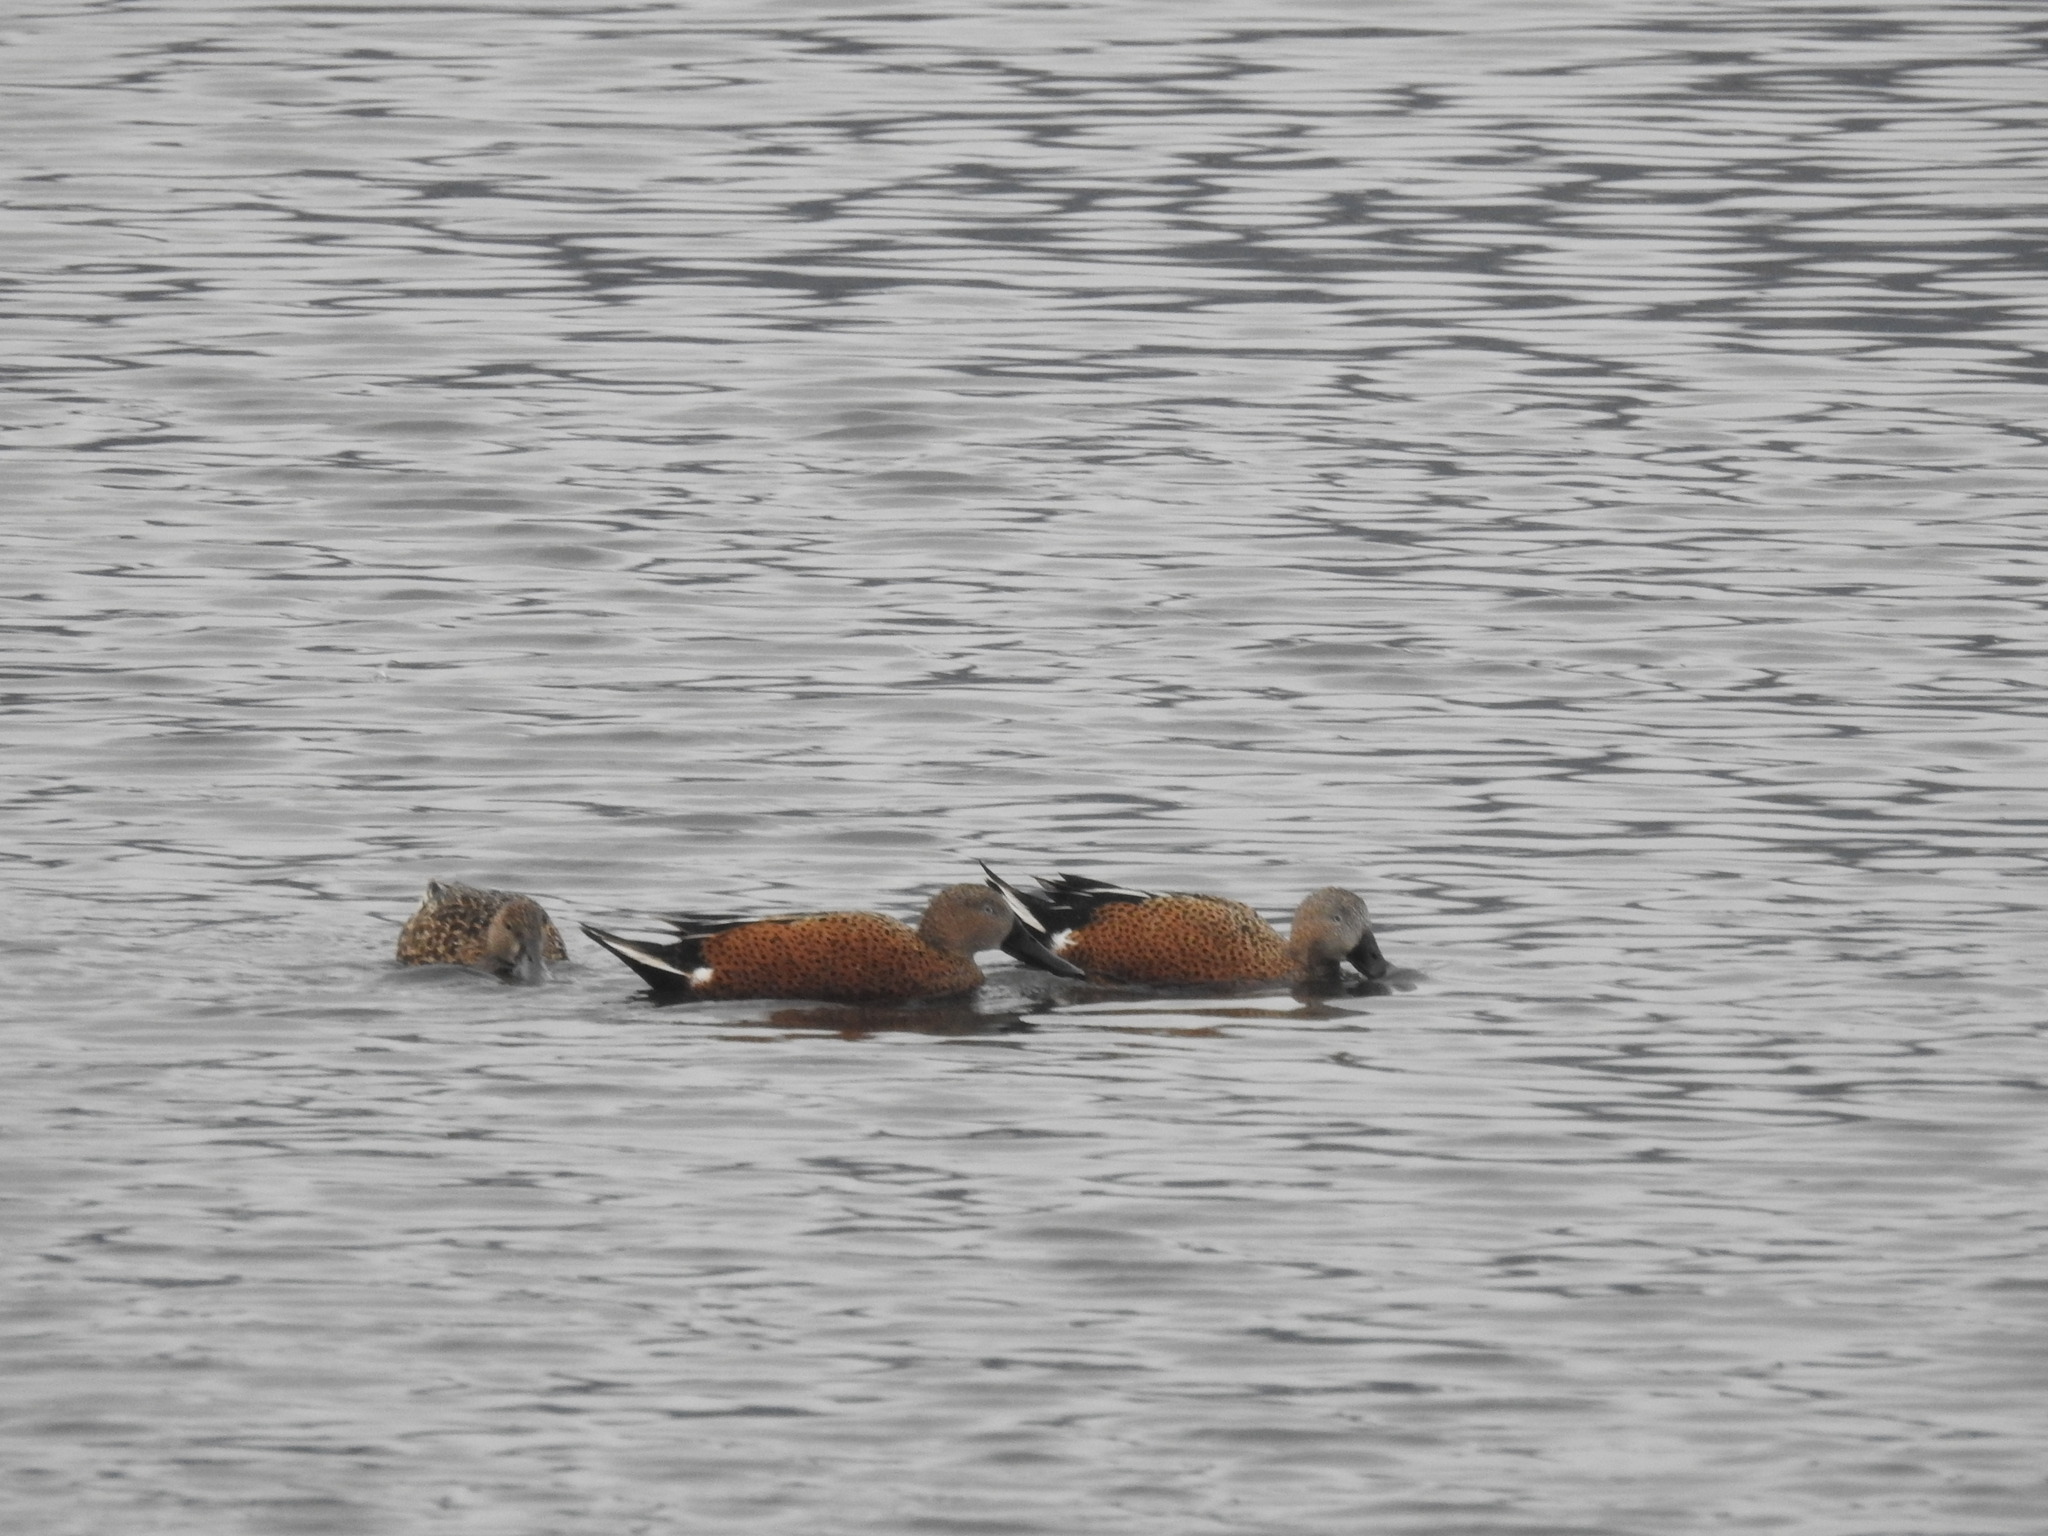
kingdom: Animalia
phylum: Chordata
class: Aves
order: Anseriformes
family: Anatidae
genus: Spatula
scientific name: Spatula platalea
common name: Red shoveler
